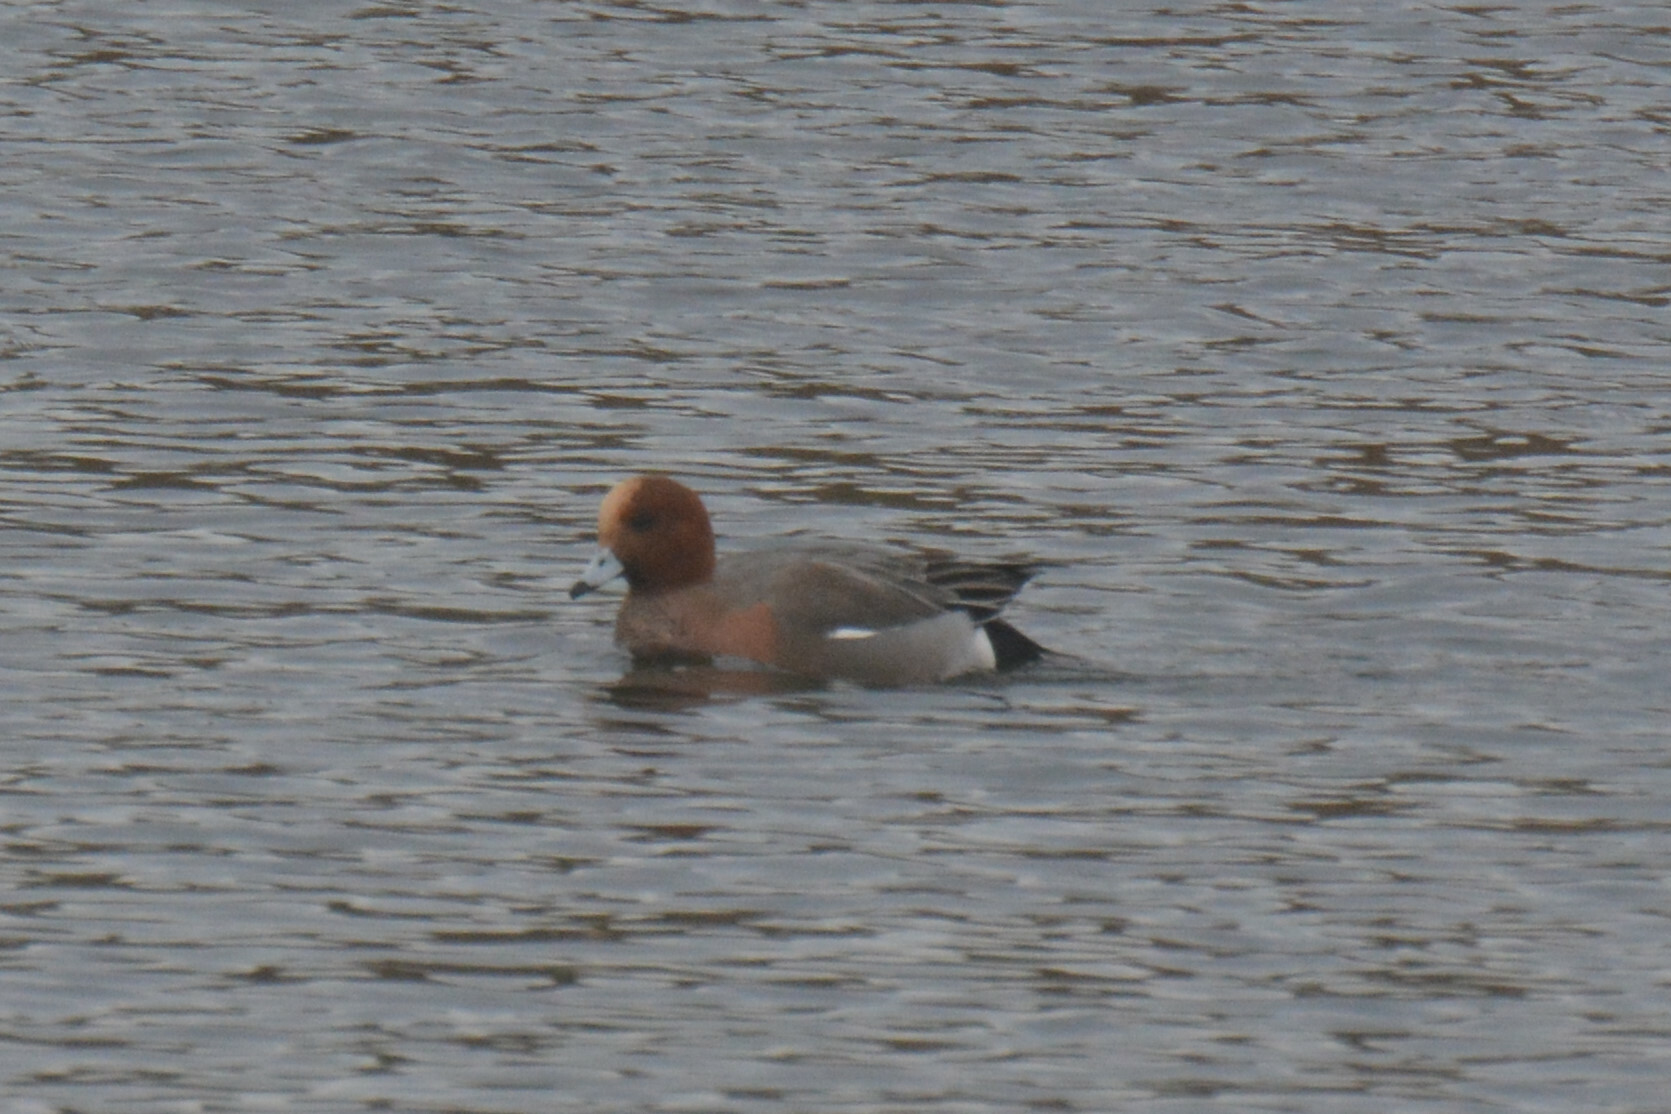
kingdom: Animalia
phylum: Chordata
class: Aves
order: Anseriformes
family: Anatidae
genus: Mareca
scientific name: Mareca penelope
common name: Eurasian wigeon
